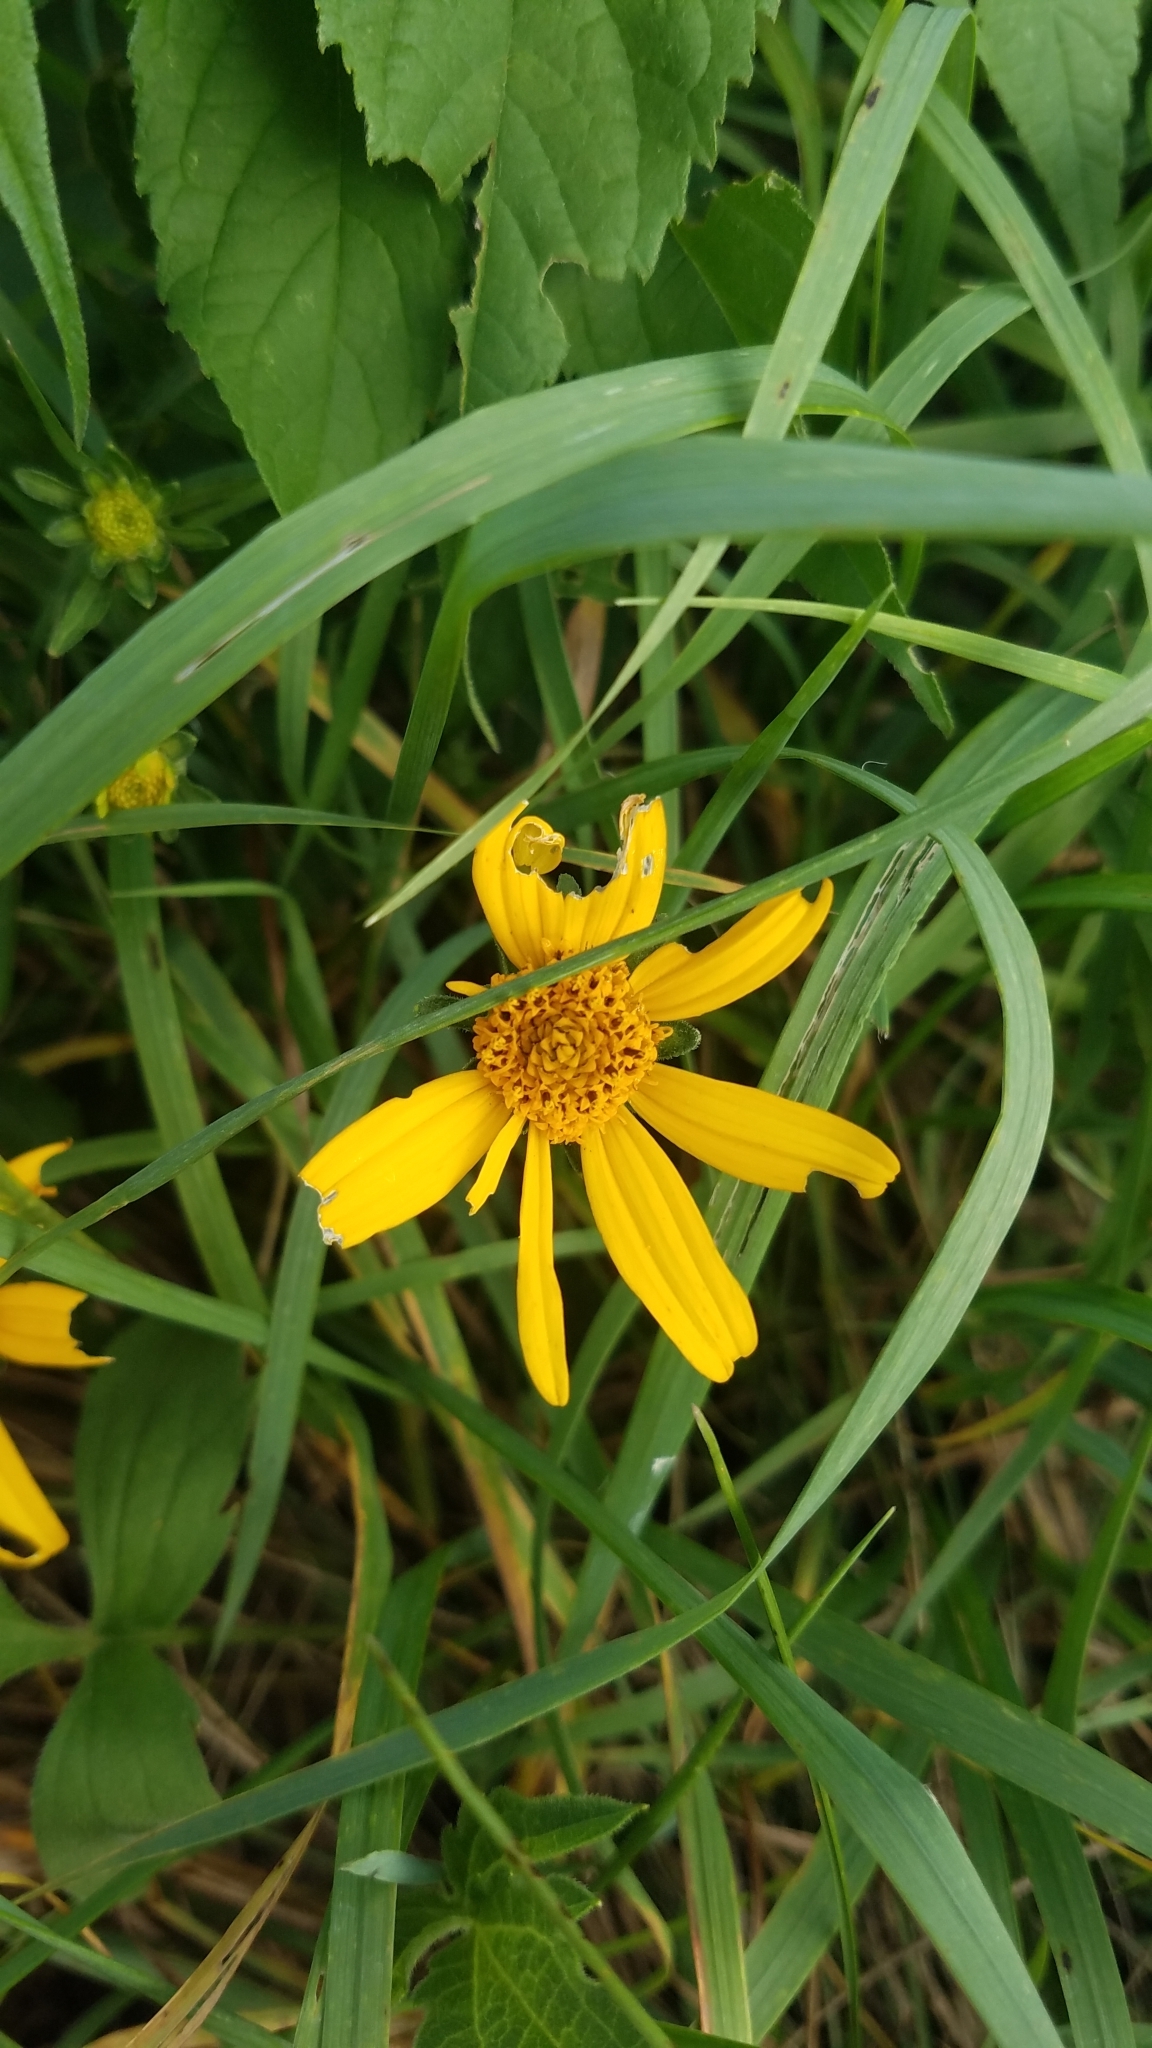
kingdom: Plantae
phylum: Tracheophyta
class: Magnoliopsida
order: Asterales
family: Asteraceae
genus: Heliopsis
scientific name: Heliopsis helianthoides
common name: False sunflower
